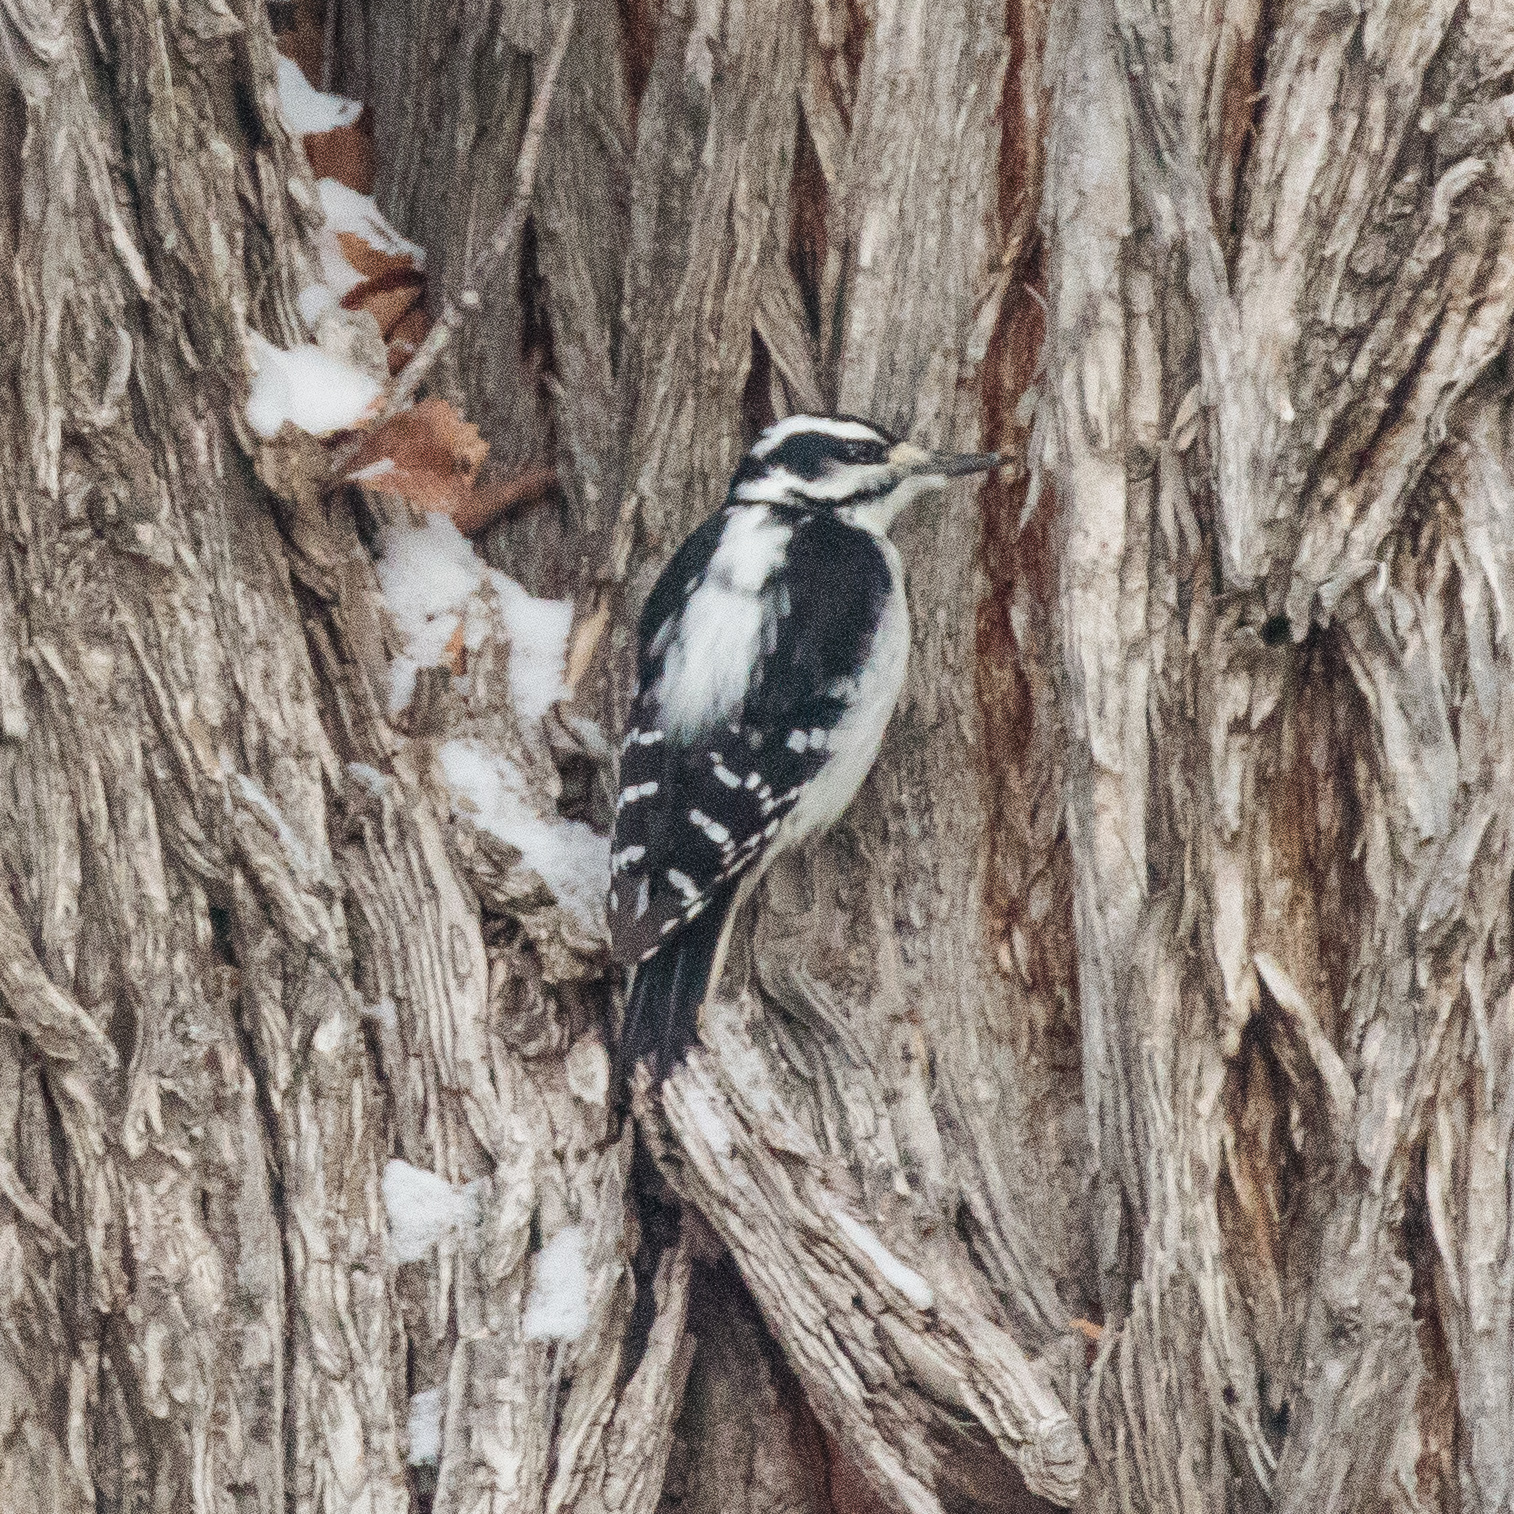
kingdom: Animalia
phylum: Chordata
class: Aves
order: Piciformes
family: Picidae
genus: Leuconotopicus
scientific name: Leuconotopicus villosus
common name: Hairy woodpecker
